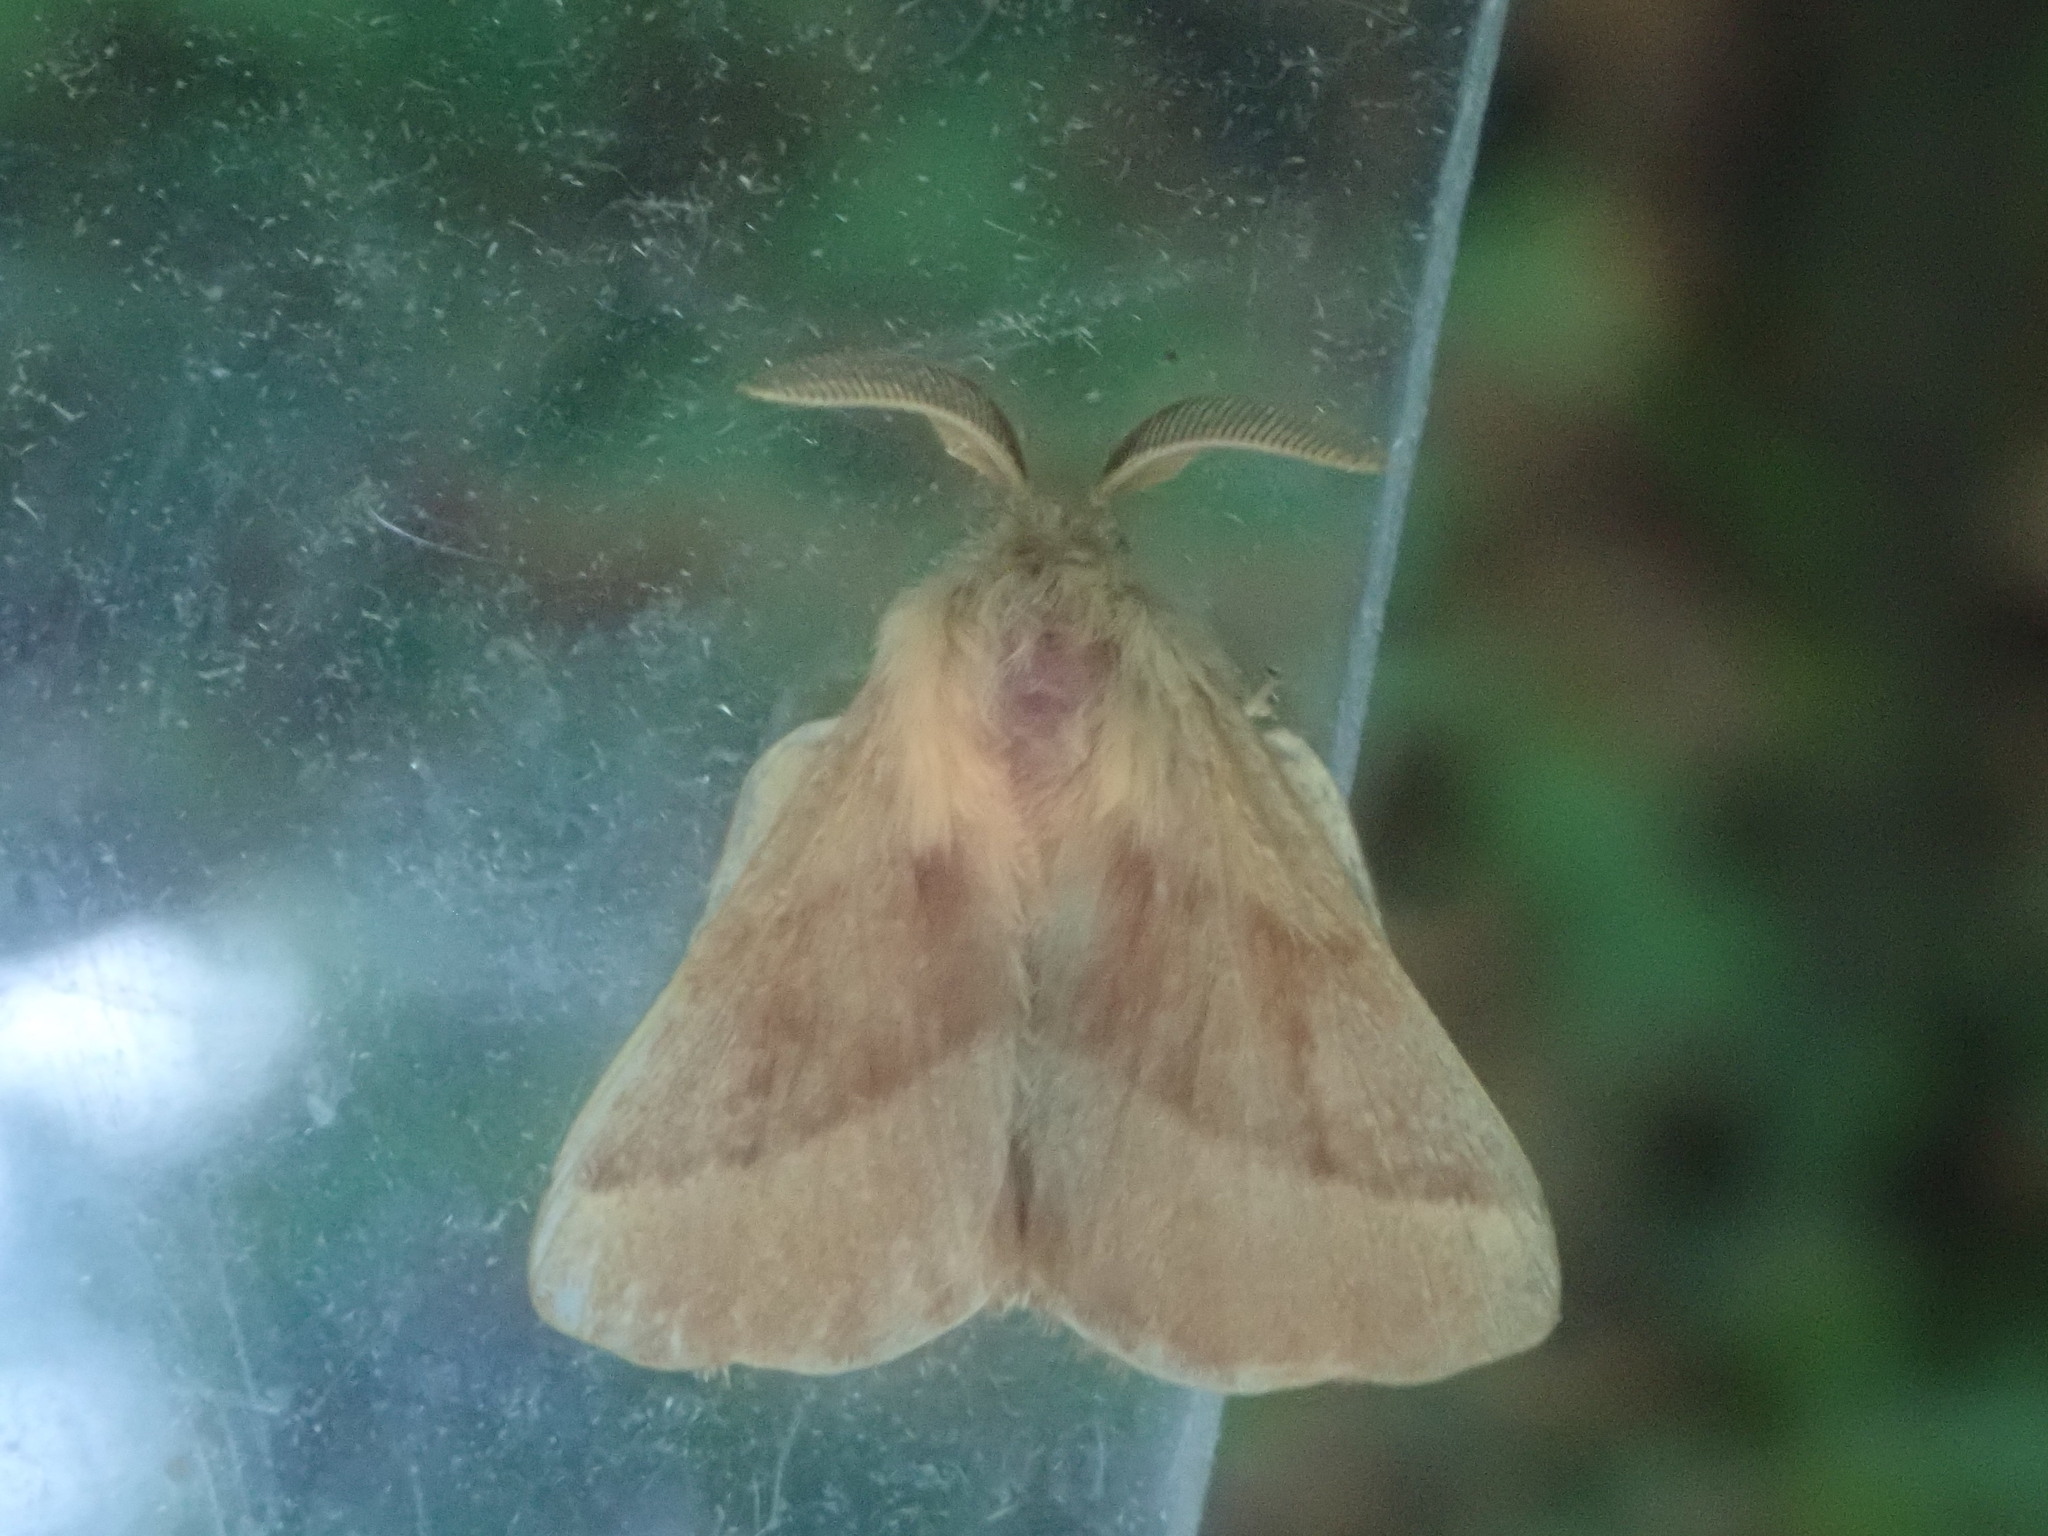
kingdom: Animalia
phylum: Arthropoda
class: Insecta
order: Lepidoptera
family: Lasiocampidae
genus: Malacosoma
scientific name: Malacosoma disstria
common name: Forest tent caterpillar
